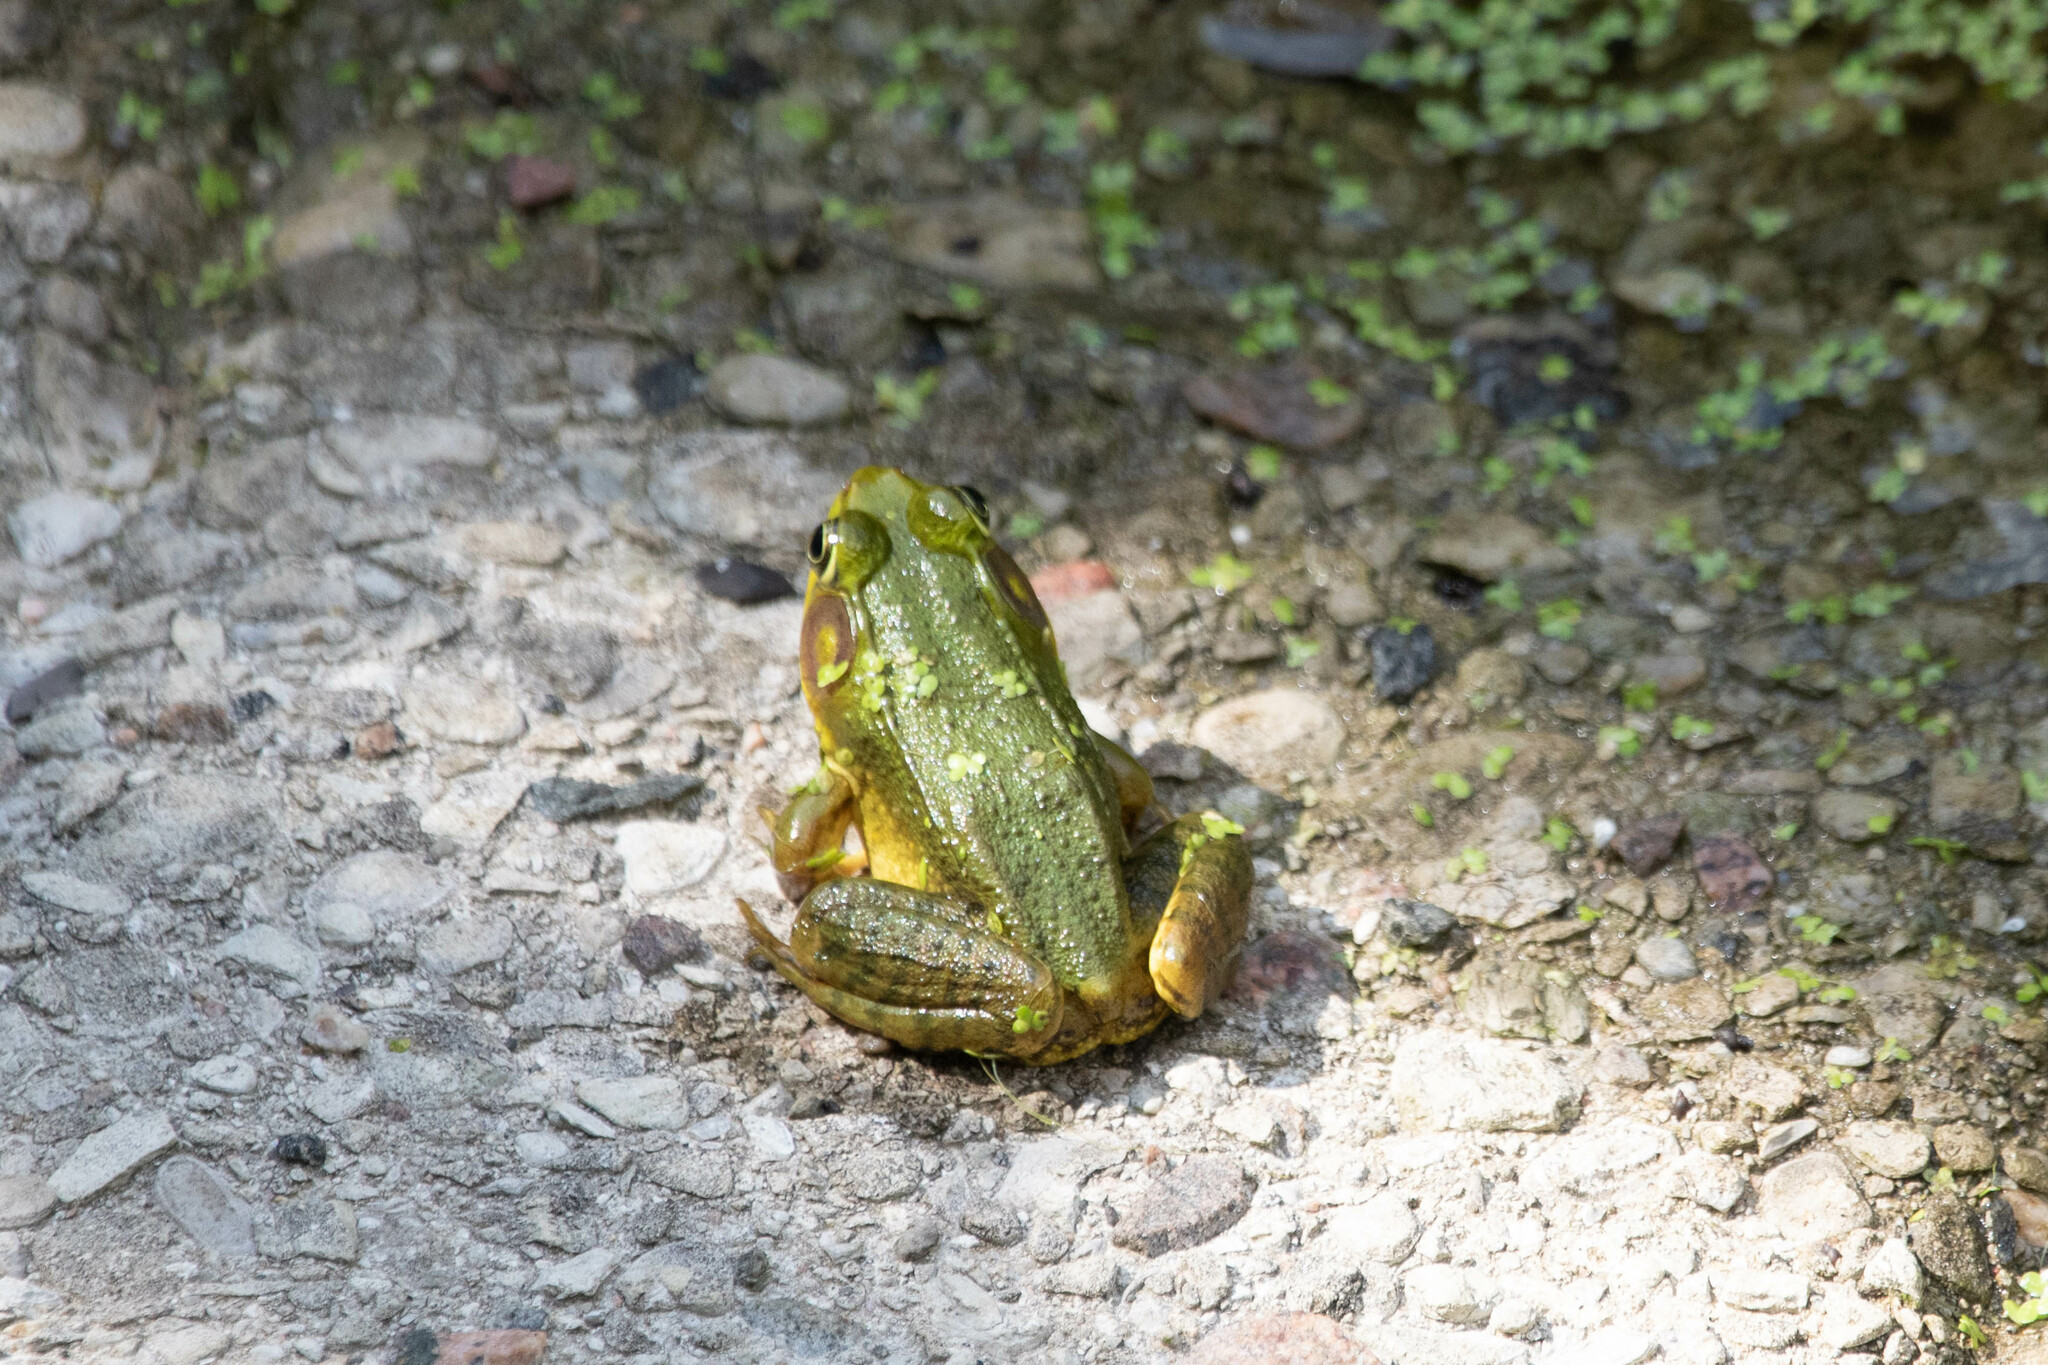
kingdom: Animalia
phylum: Chordata
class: Amphibia
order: Anura
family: Ranidae
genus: Lithobates
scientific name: Lithobates clamitans
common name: Green frog
